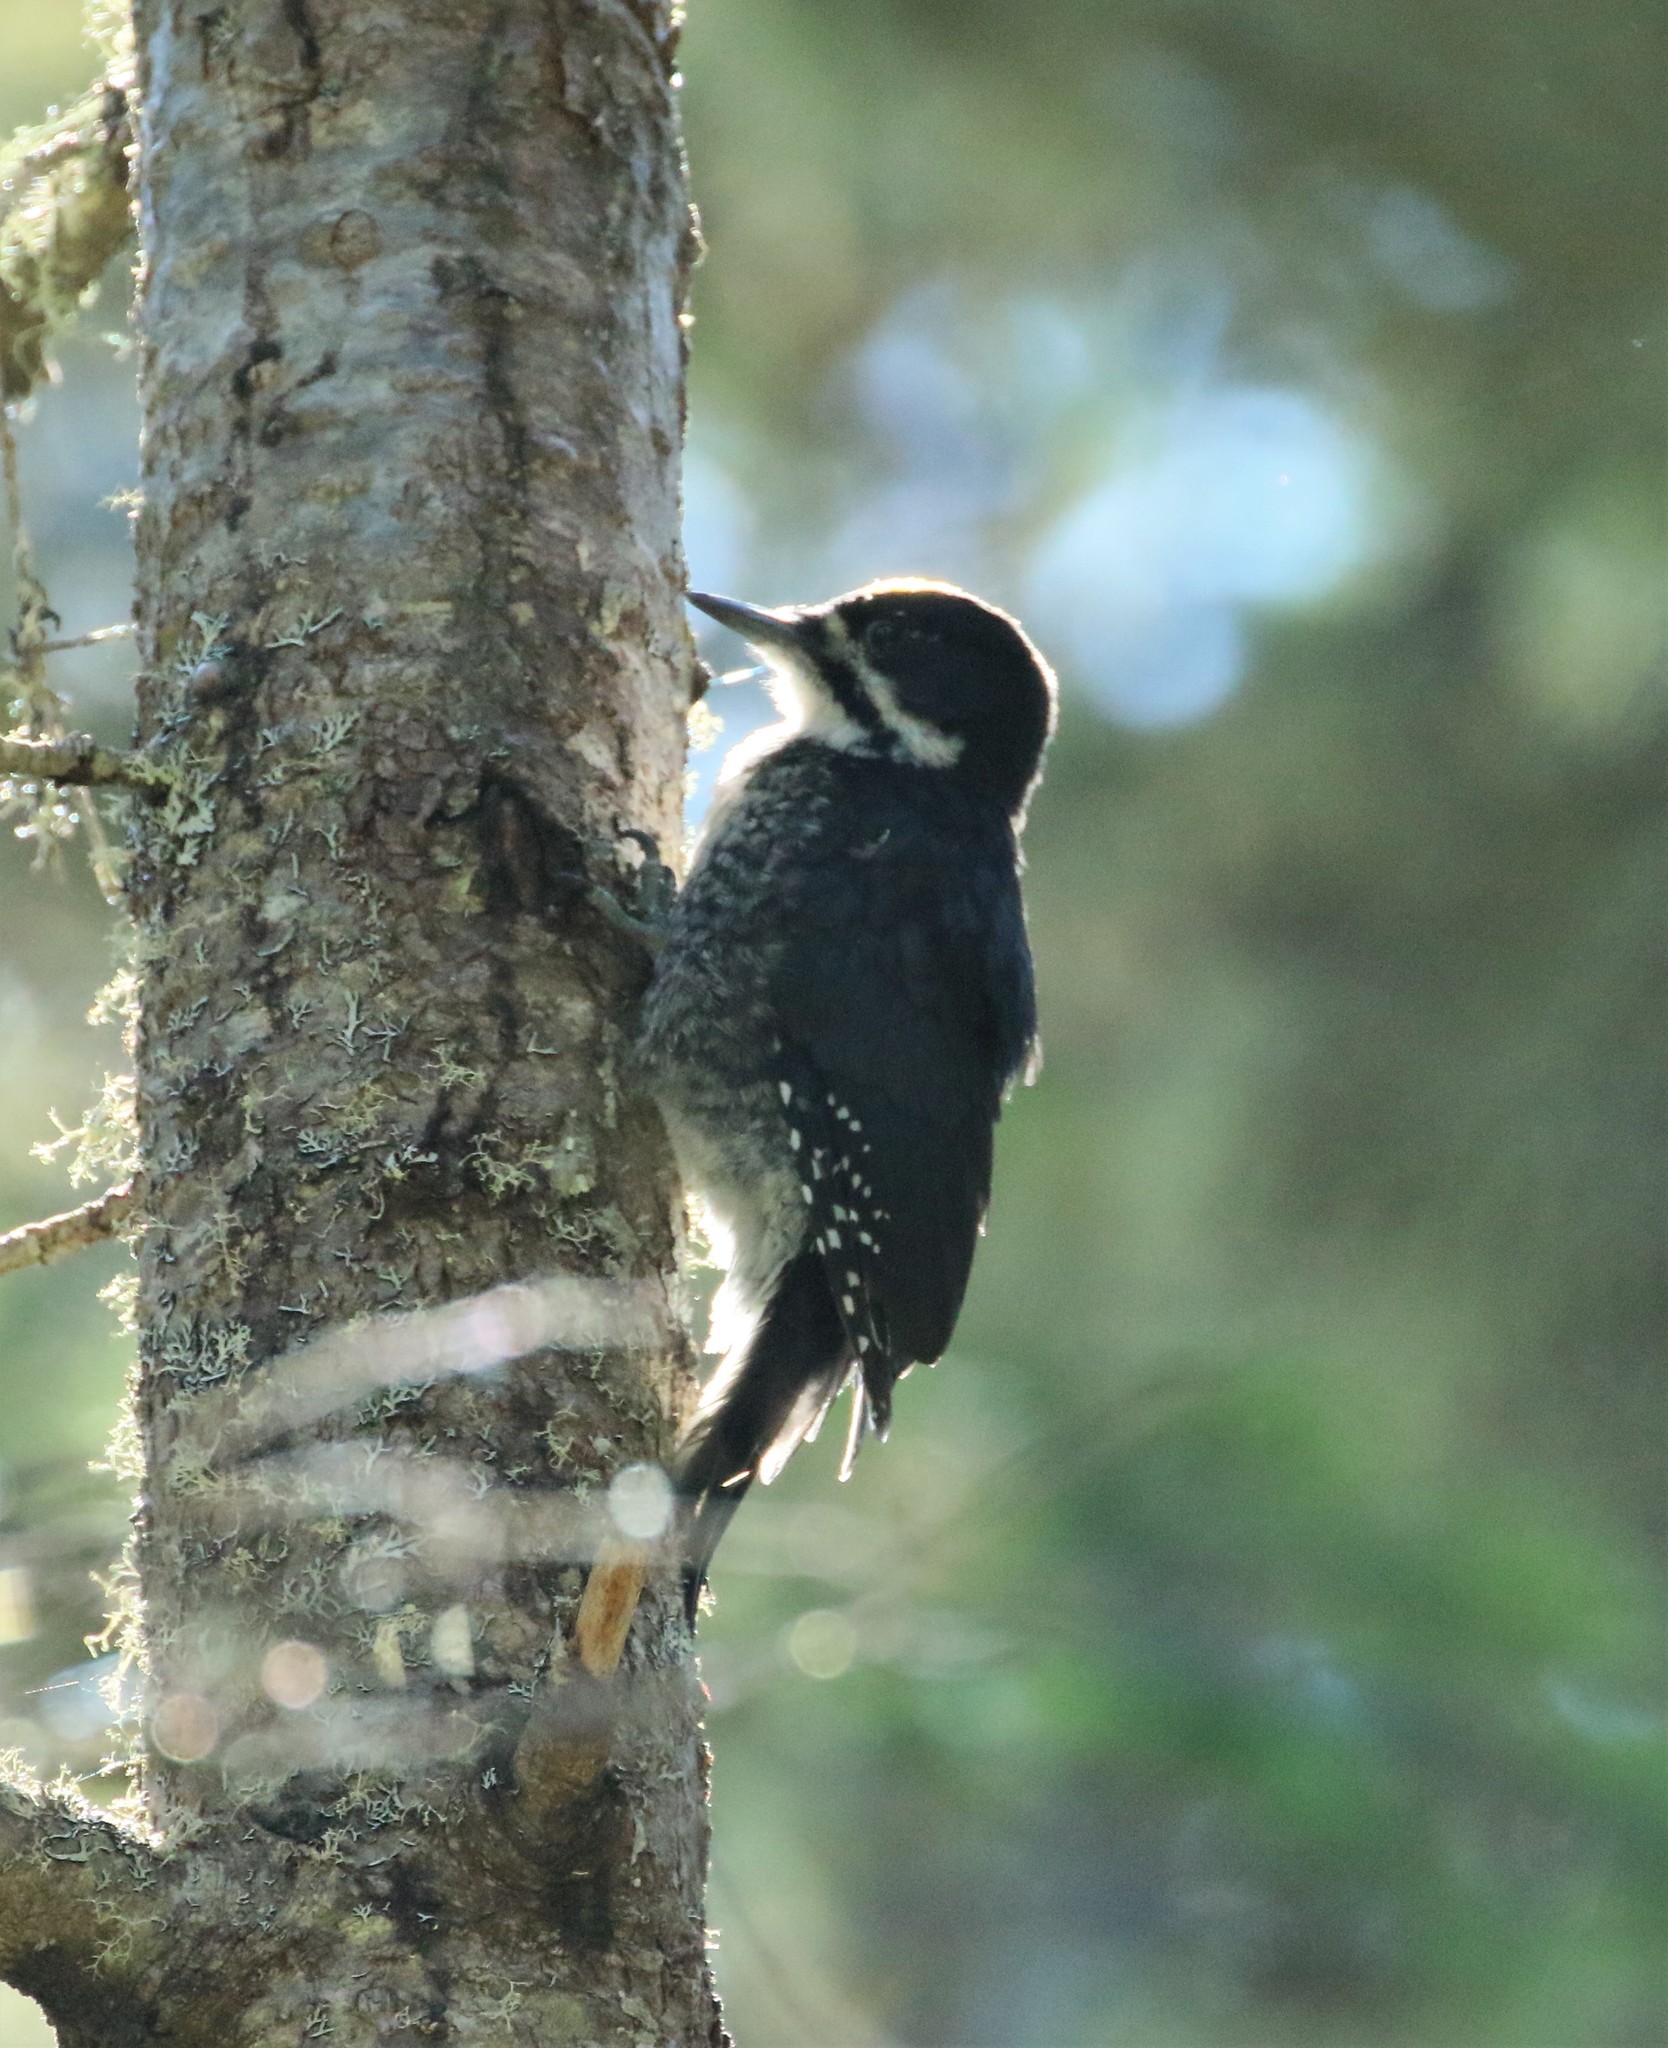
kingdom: Animalia
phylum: Chordata
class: Aves
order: Piciformes
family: Picidae
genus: Picoides
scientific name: Picoides arcticus
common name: Black-backed woodpecker
